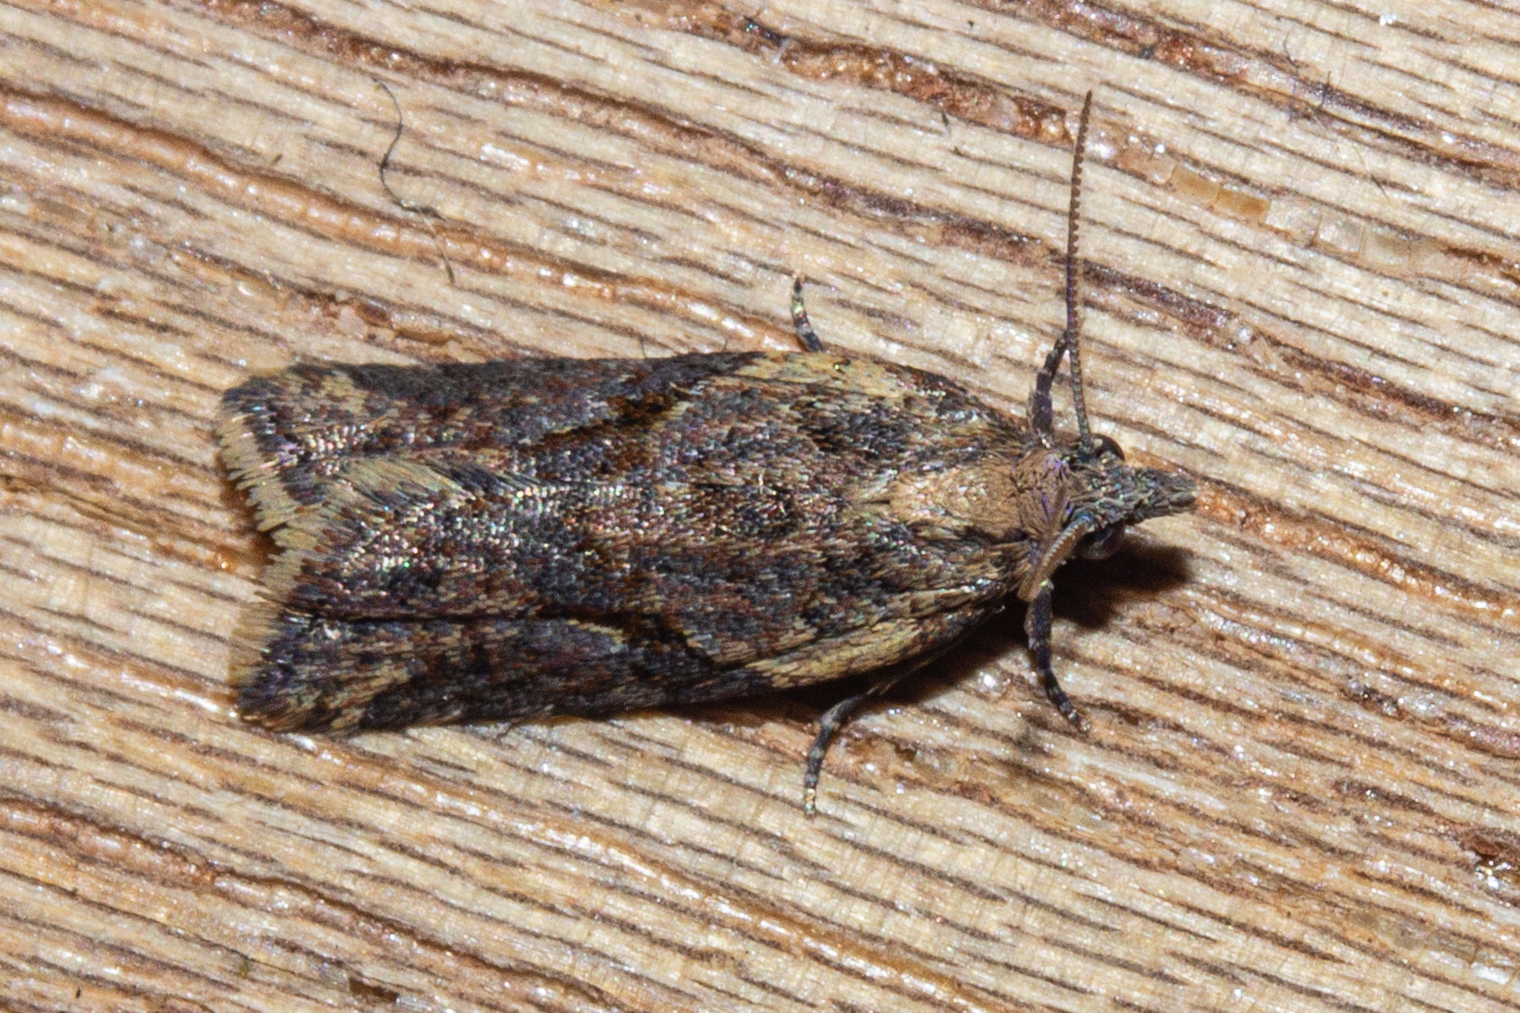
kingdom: Animalia
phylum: Arthropoda
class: Insecta
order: Lepidoptera
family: Tortricidae
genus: Capua
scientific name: Capua semiferana
